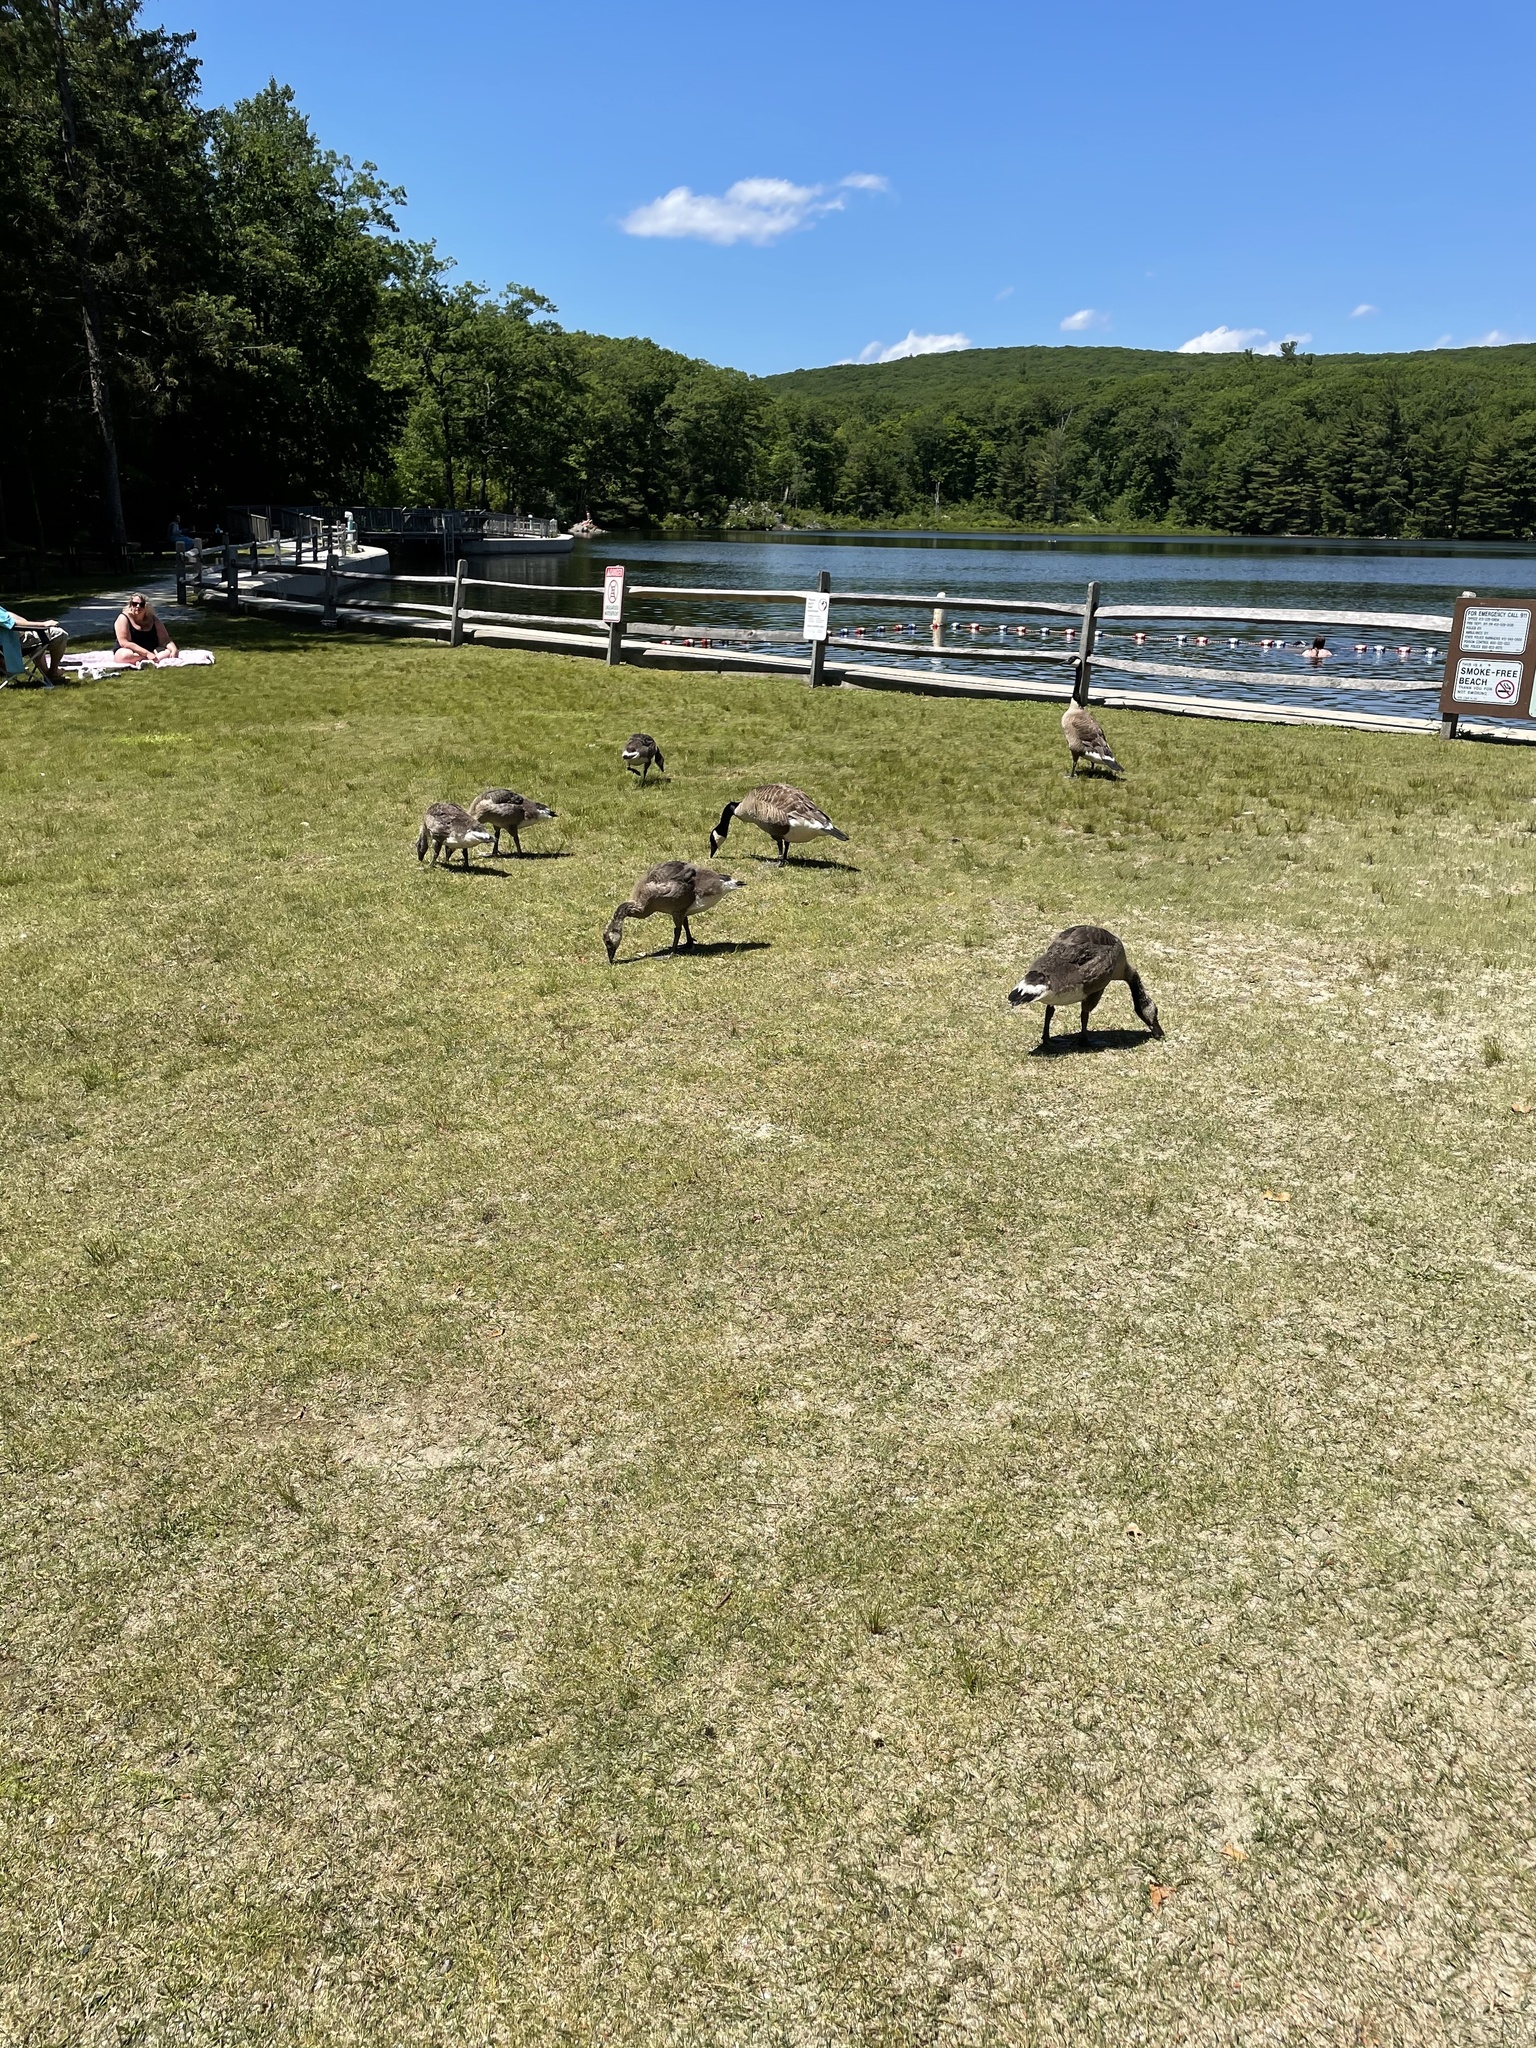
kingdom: Animalia
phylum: Chordata
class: Aves
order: Anseriformes
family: Anatidae
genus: Branta
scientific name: Branta canadensis
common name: Canada goose
